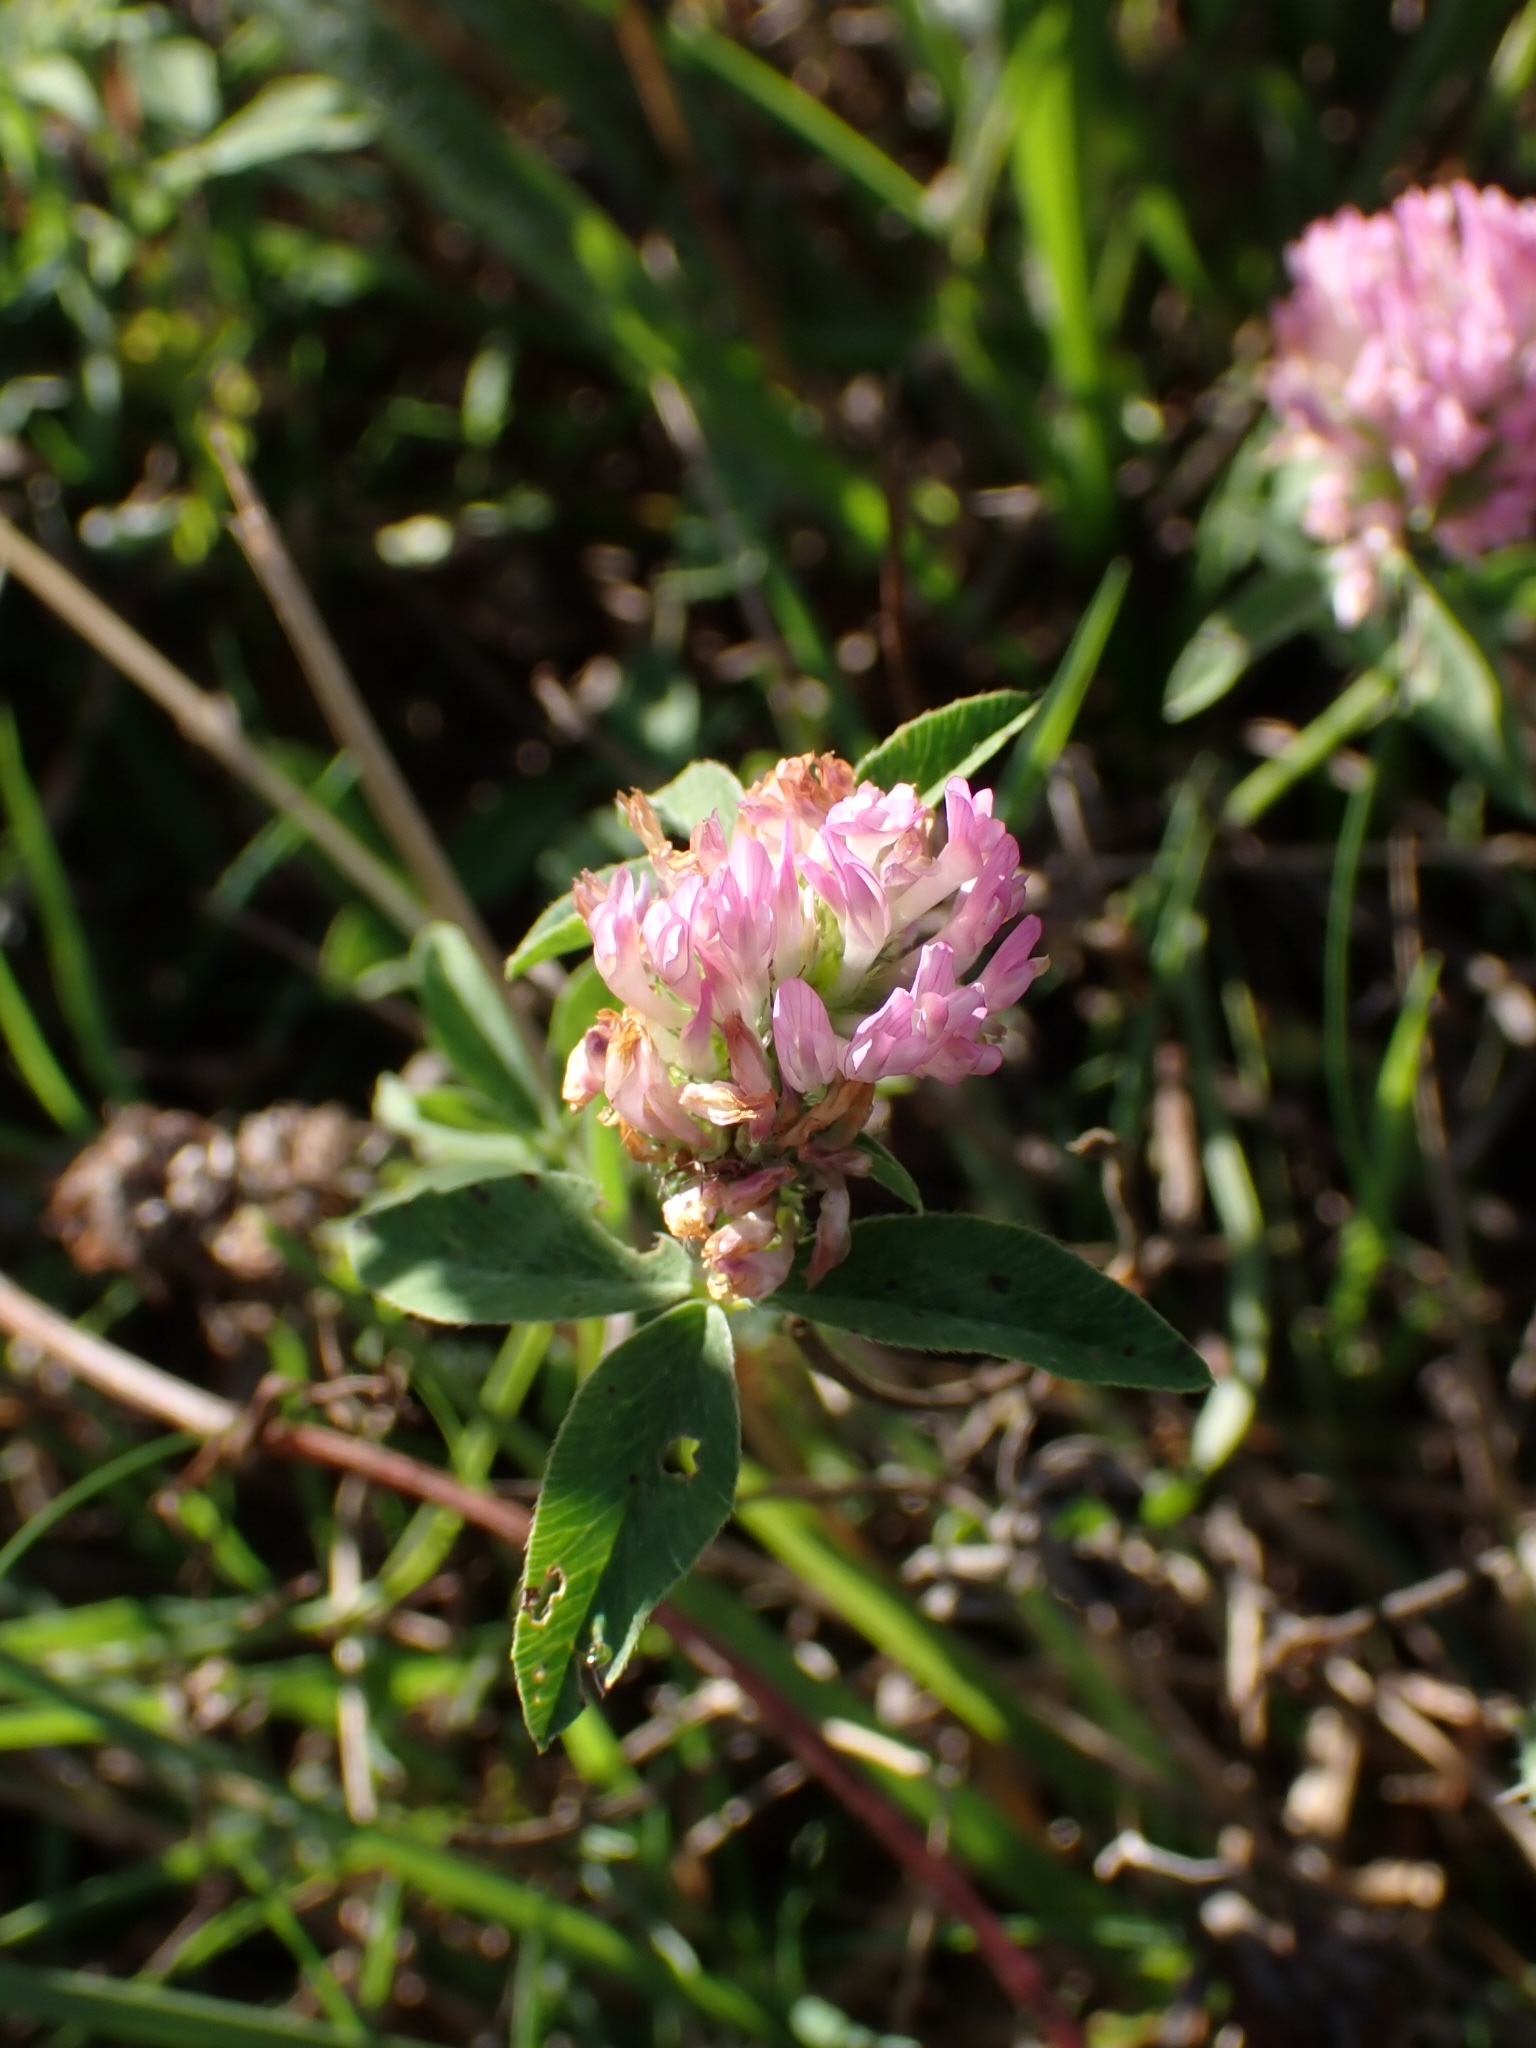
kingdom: Plantae
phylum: Tracheophyta
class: Magnoliopsida
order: Fabales
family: Fabaceae
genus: Trifolium
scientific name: Trifolium pratense
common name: Red clover
